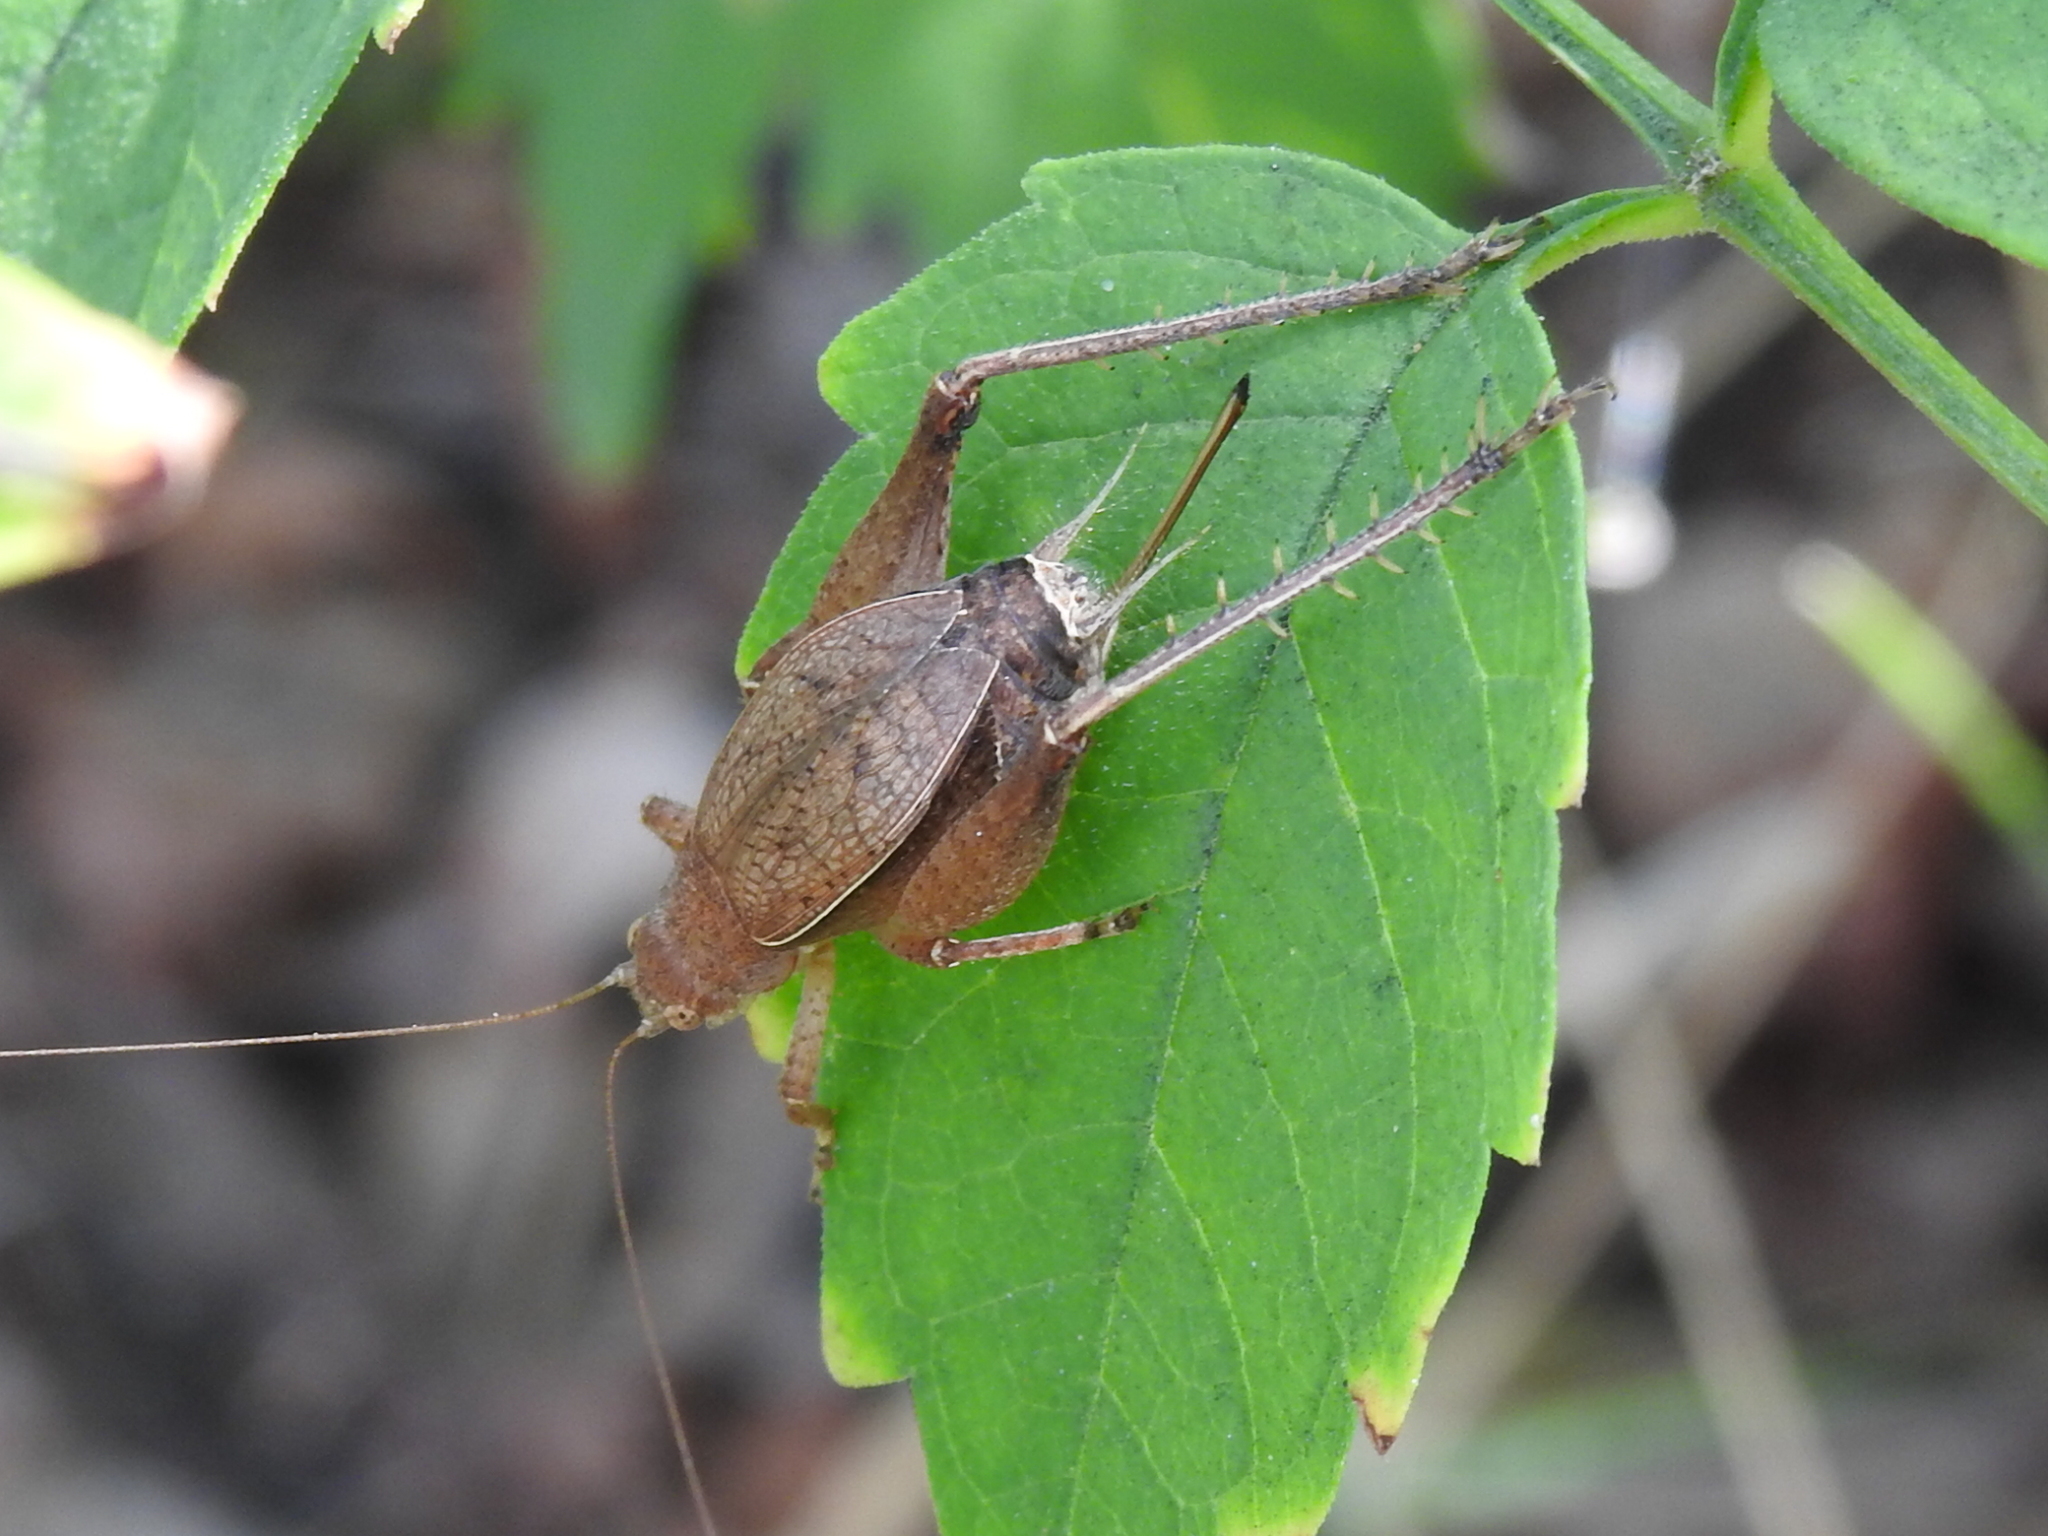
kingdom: Animalia
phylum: Arthropoda
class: Insecta
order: Orthoptera
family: Gryllidae
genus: Hapithus
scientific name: Hapithus agitator
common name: Restless bush cricket
